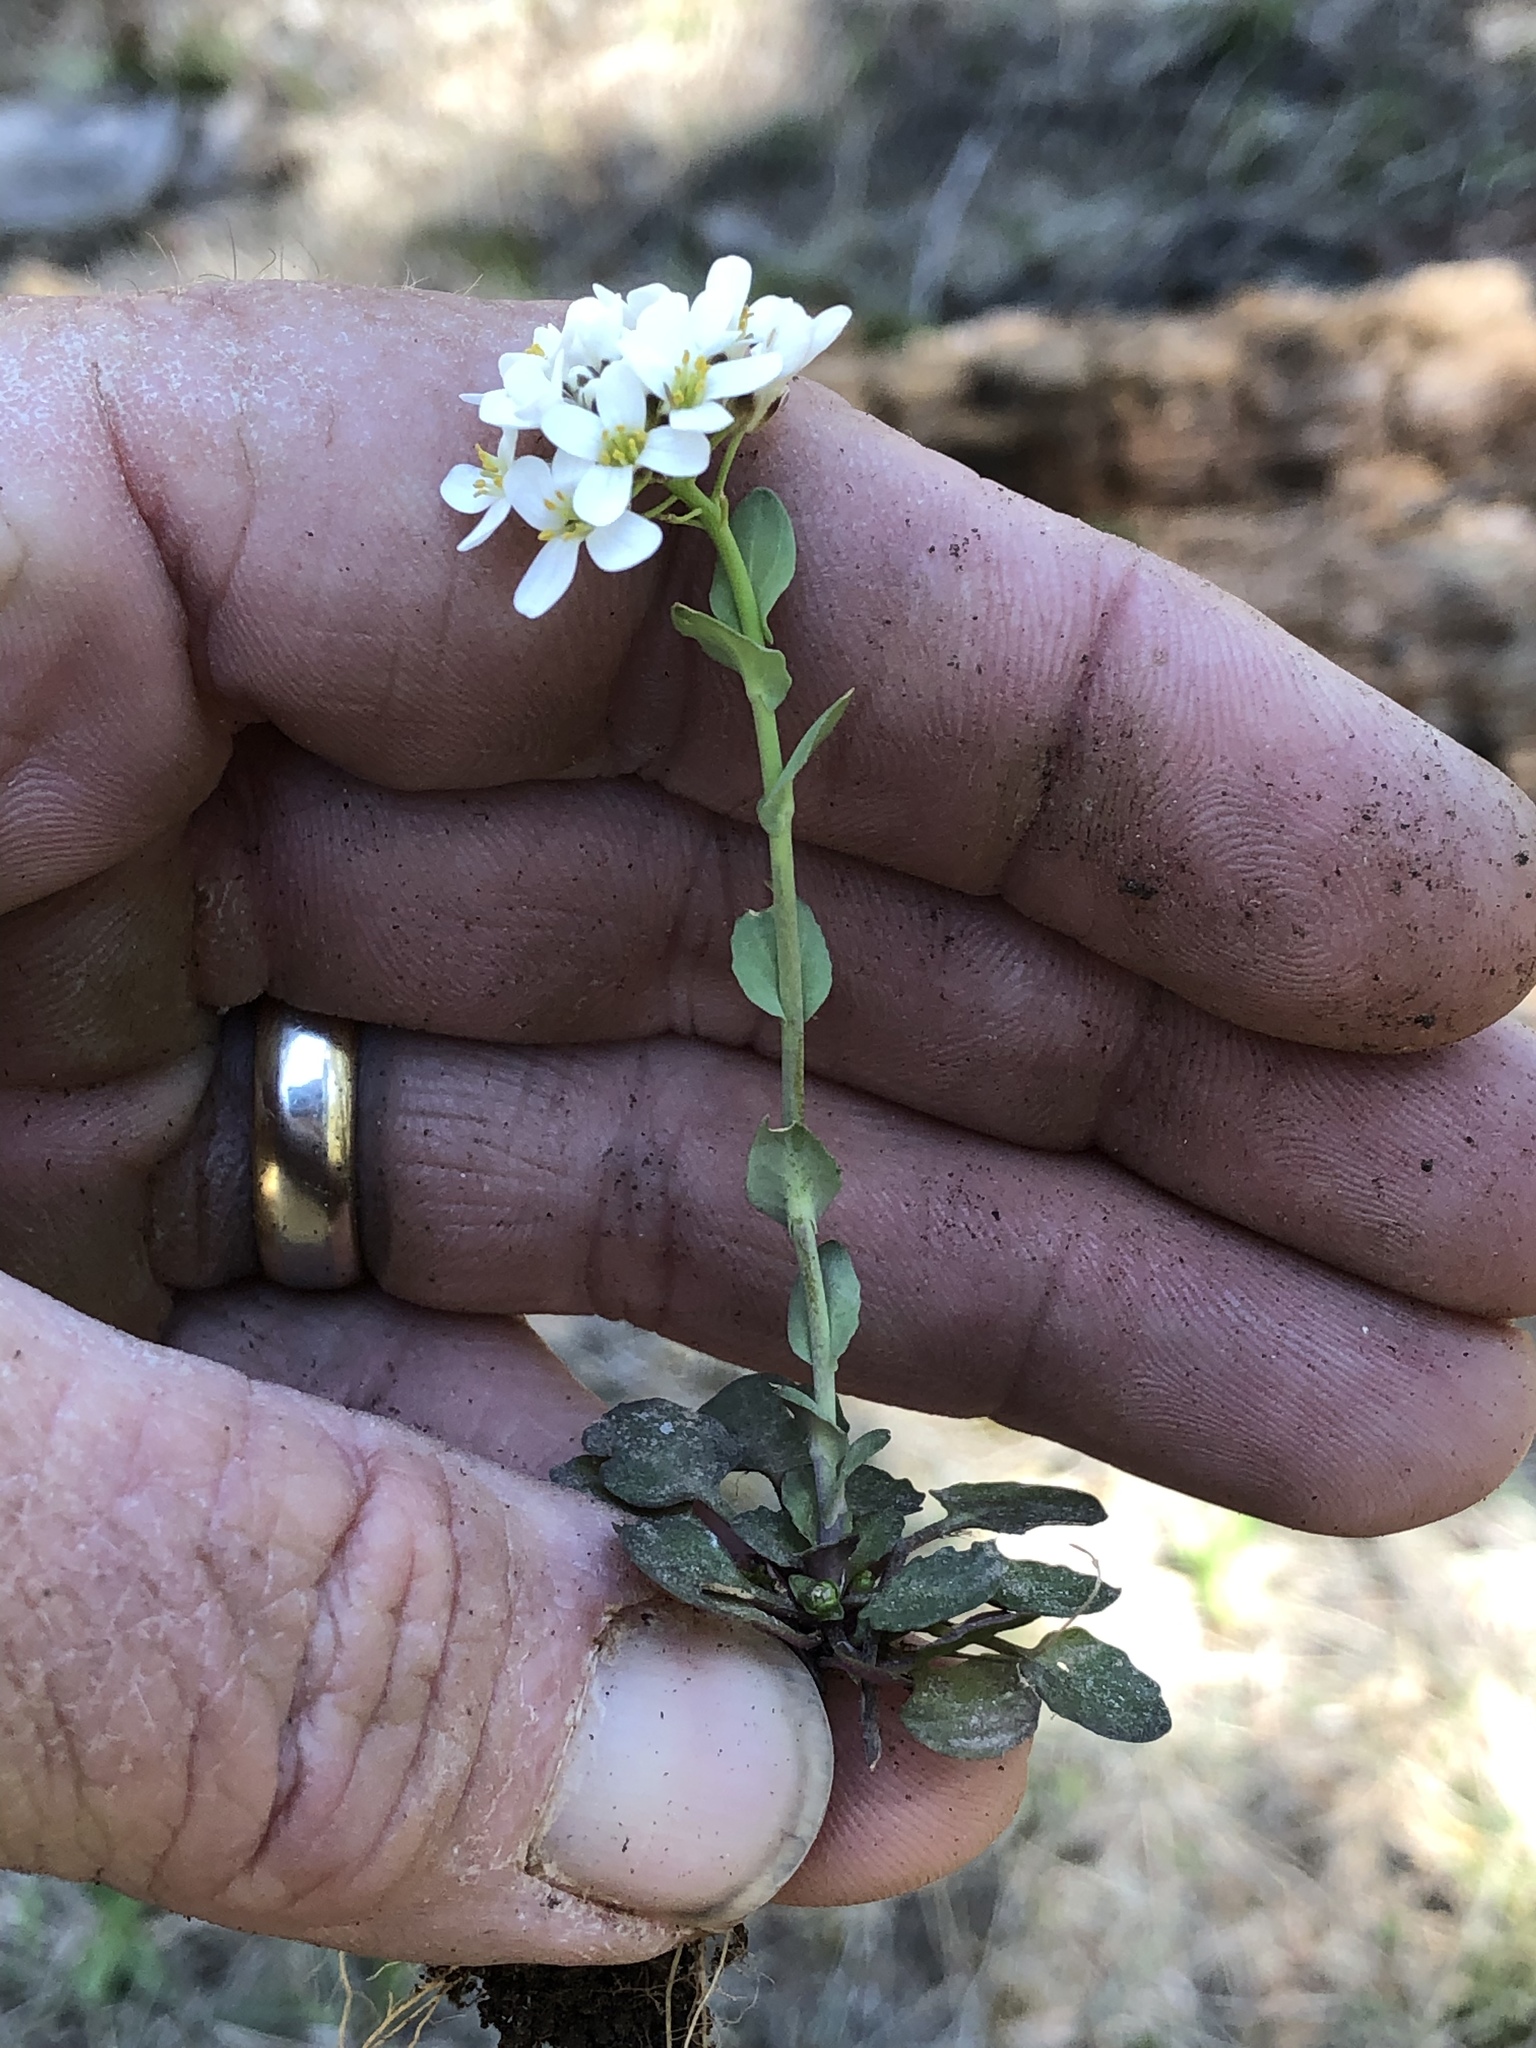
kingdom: Plantae
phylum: Tracheophyta
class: Magnoliopsida
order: Brassicales
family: Brassicaceae
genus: Noccaea
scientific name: Noccaea fendleri
